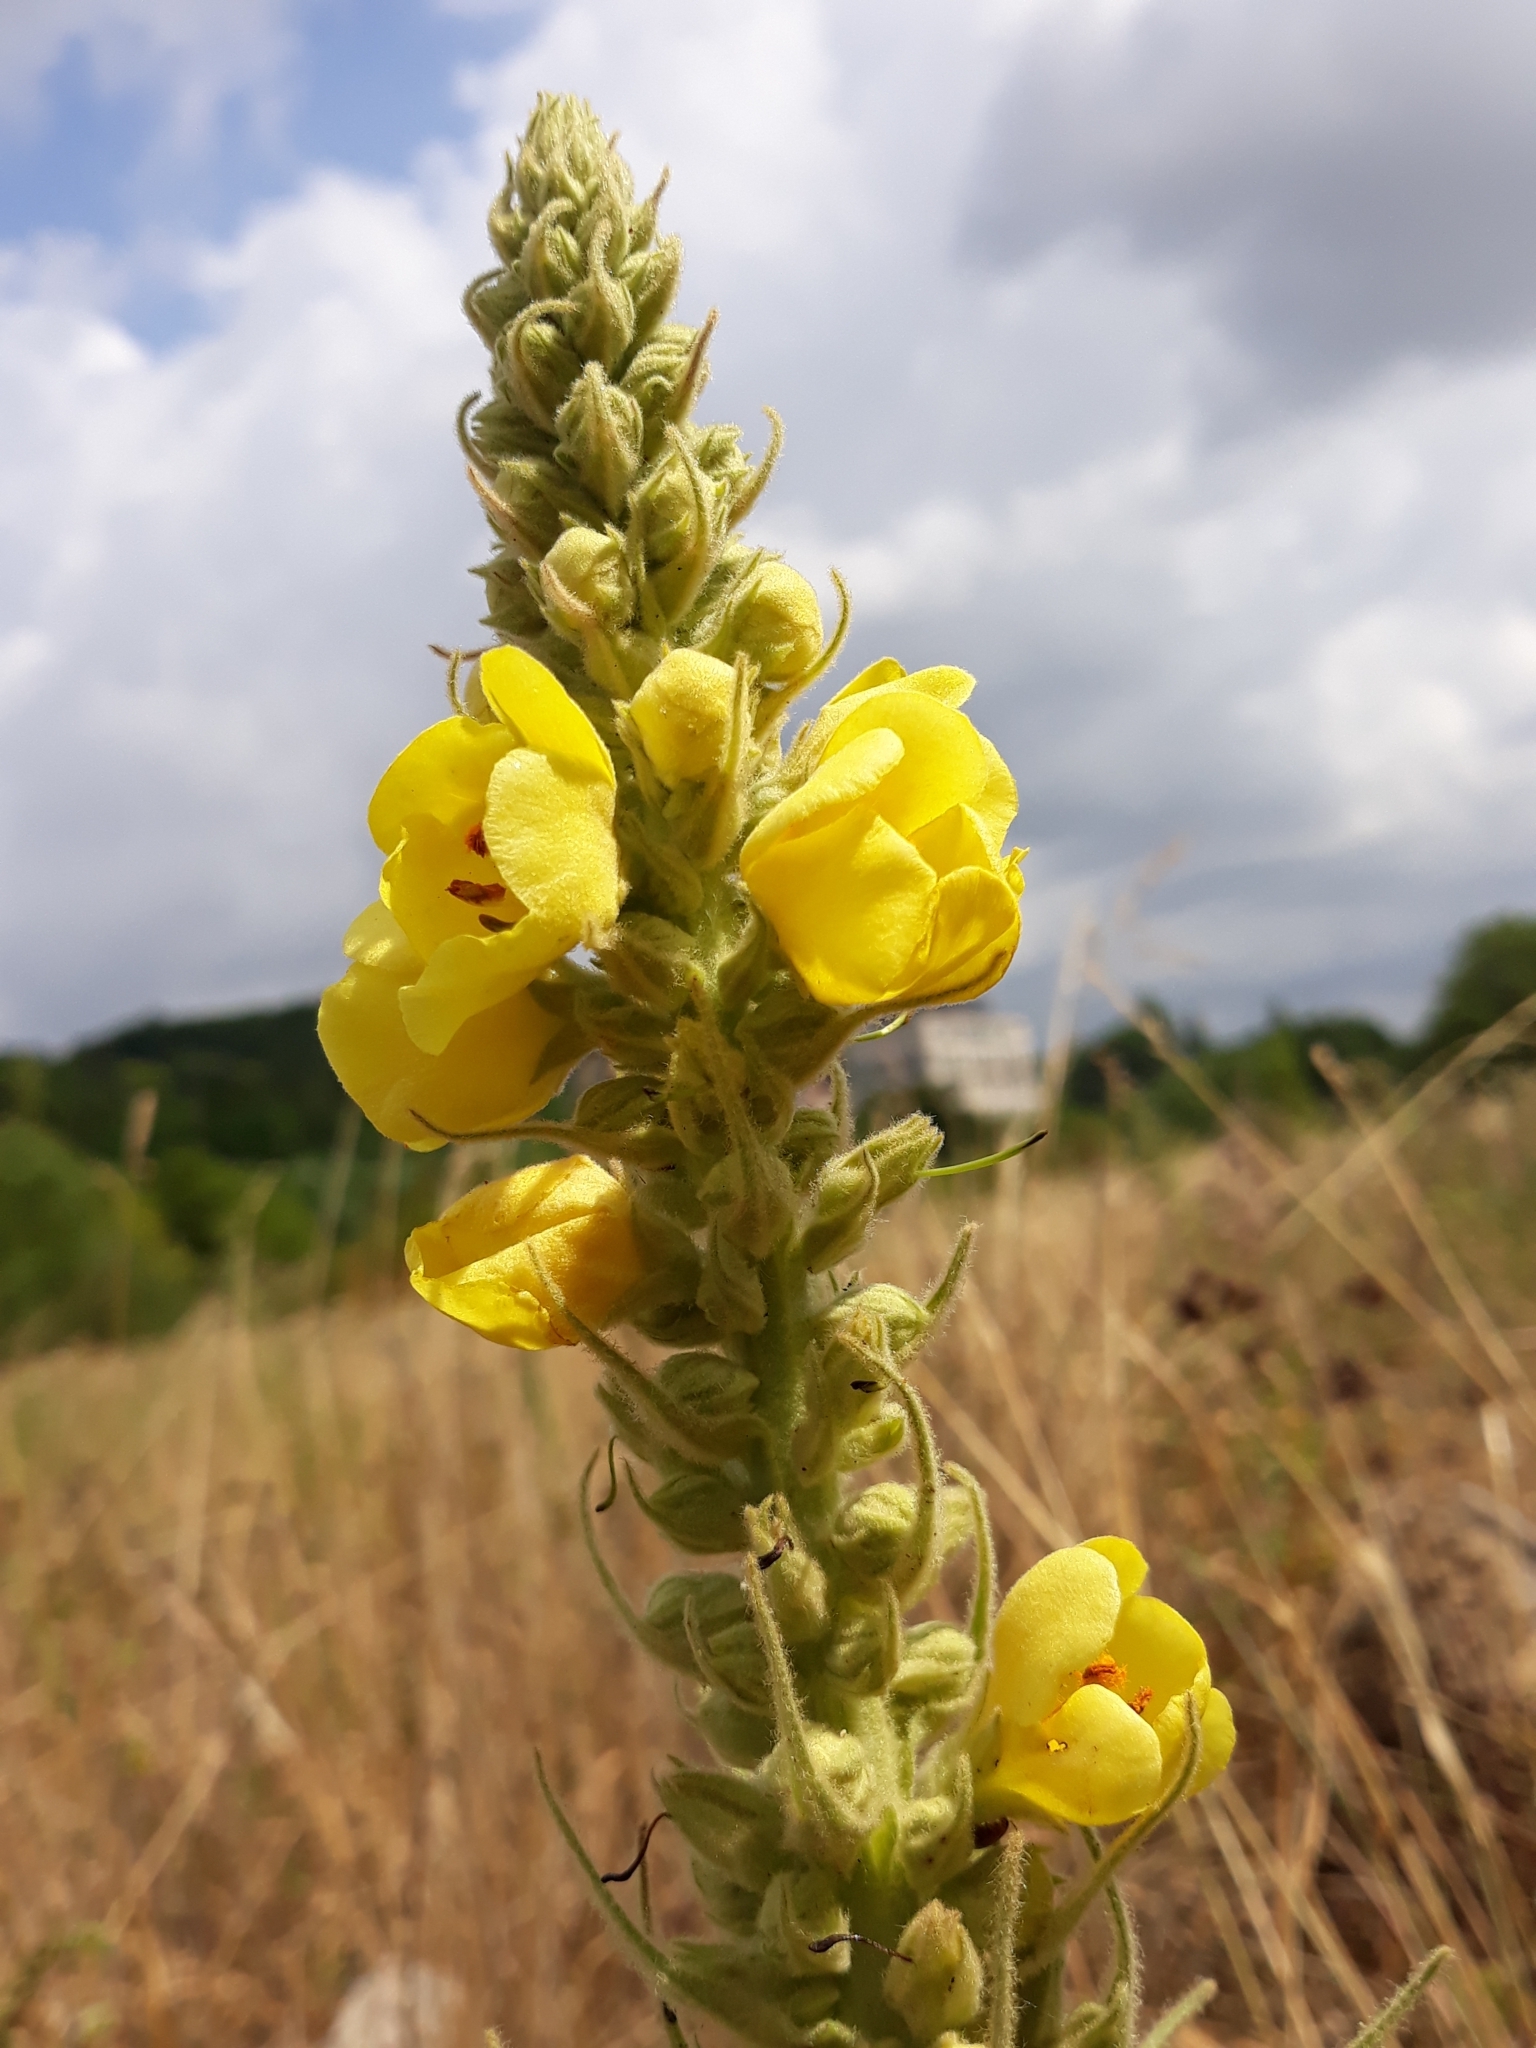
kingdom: Plantae
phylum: Tracheophyta
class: Magnoliopsida
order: Lamiales
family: Scrophulariaceae
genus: Verbascum
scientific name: Verbascum densiflorum
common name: Dense-flowered mullein
